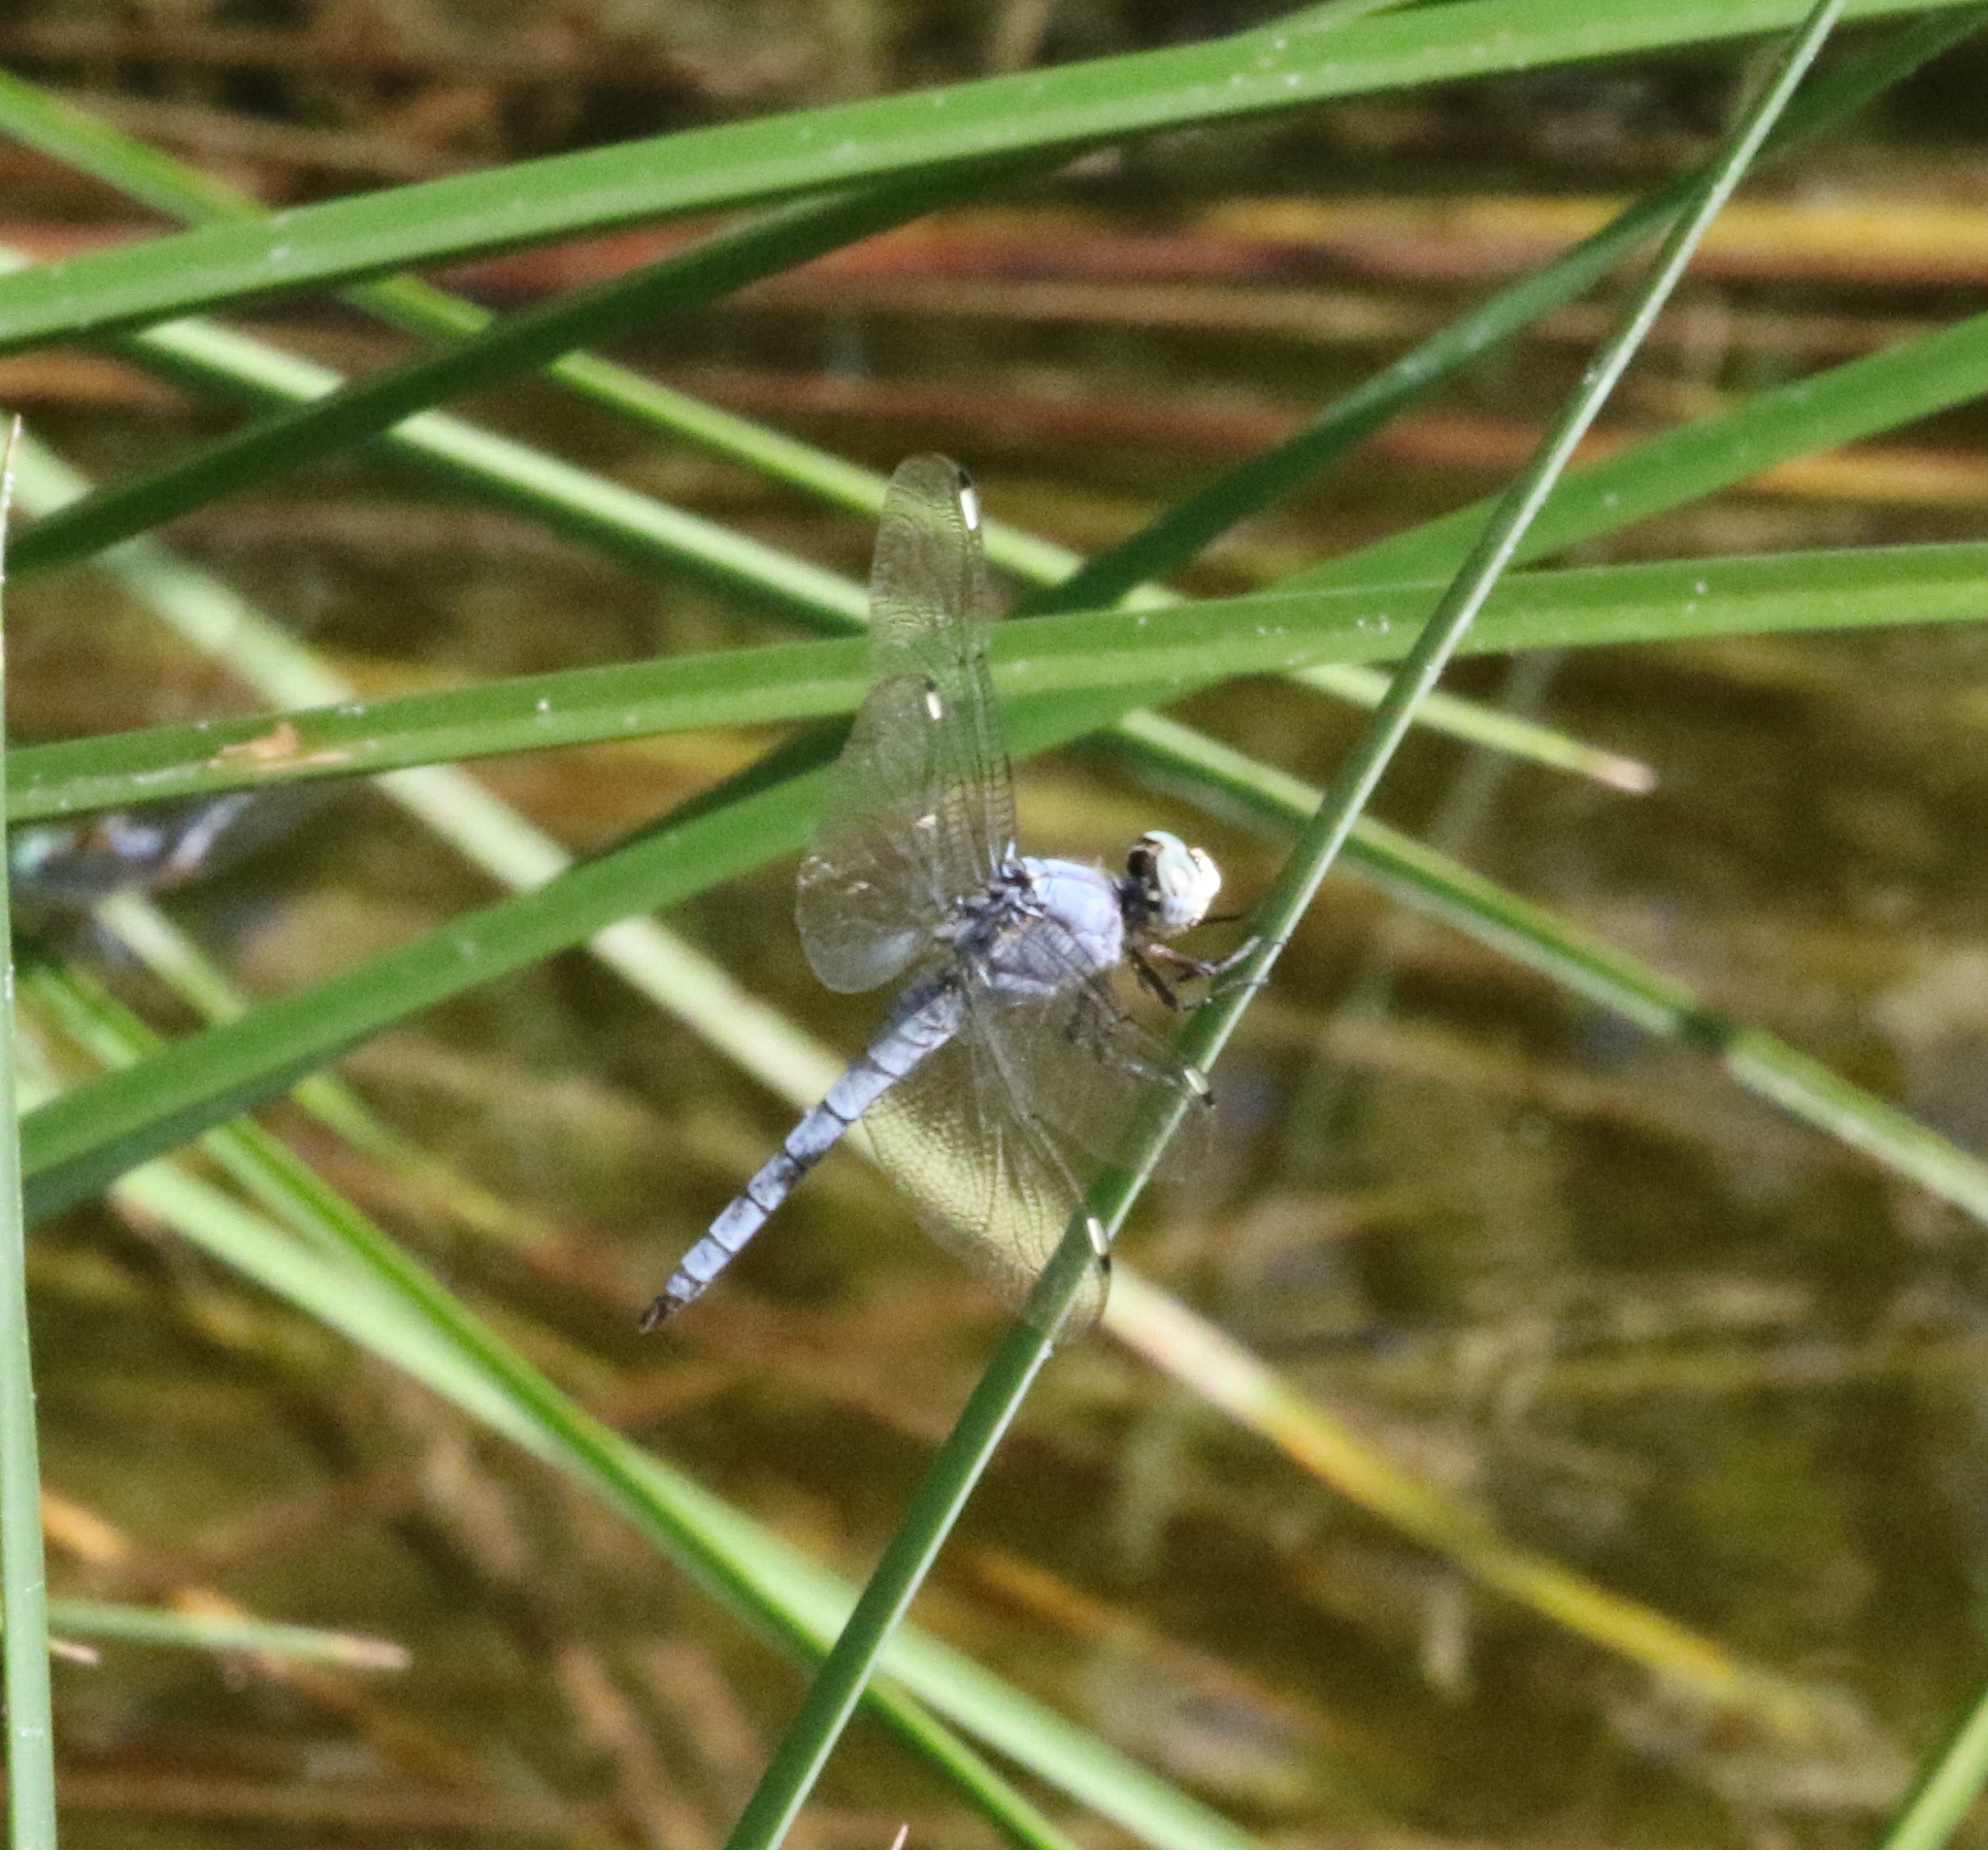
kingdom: Animalia
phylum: Arthropoda
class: Insecta
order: Odonata
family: Libellulidae
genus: Libellula
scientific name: Libellula comanche
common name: Comanche skimmer
